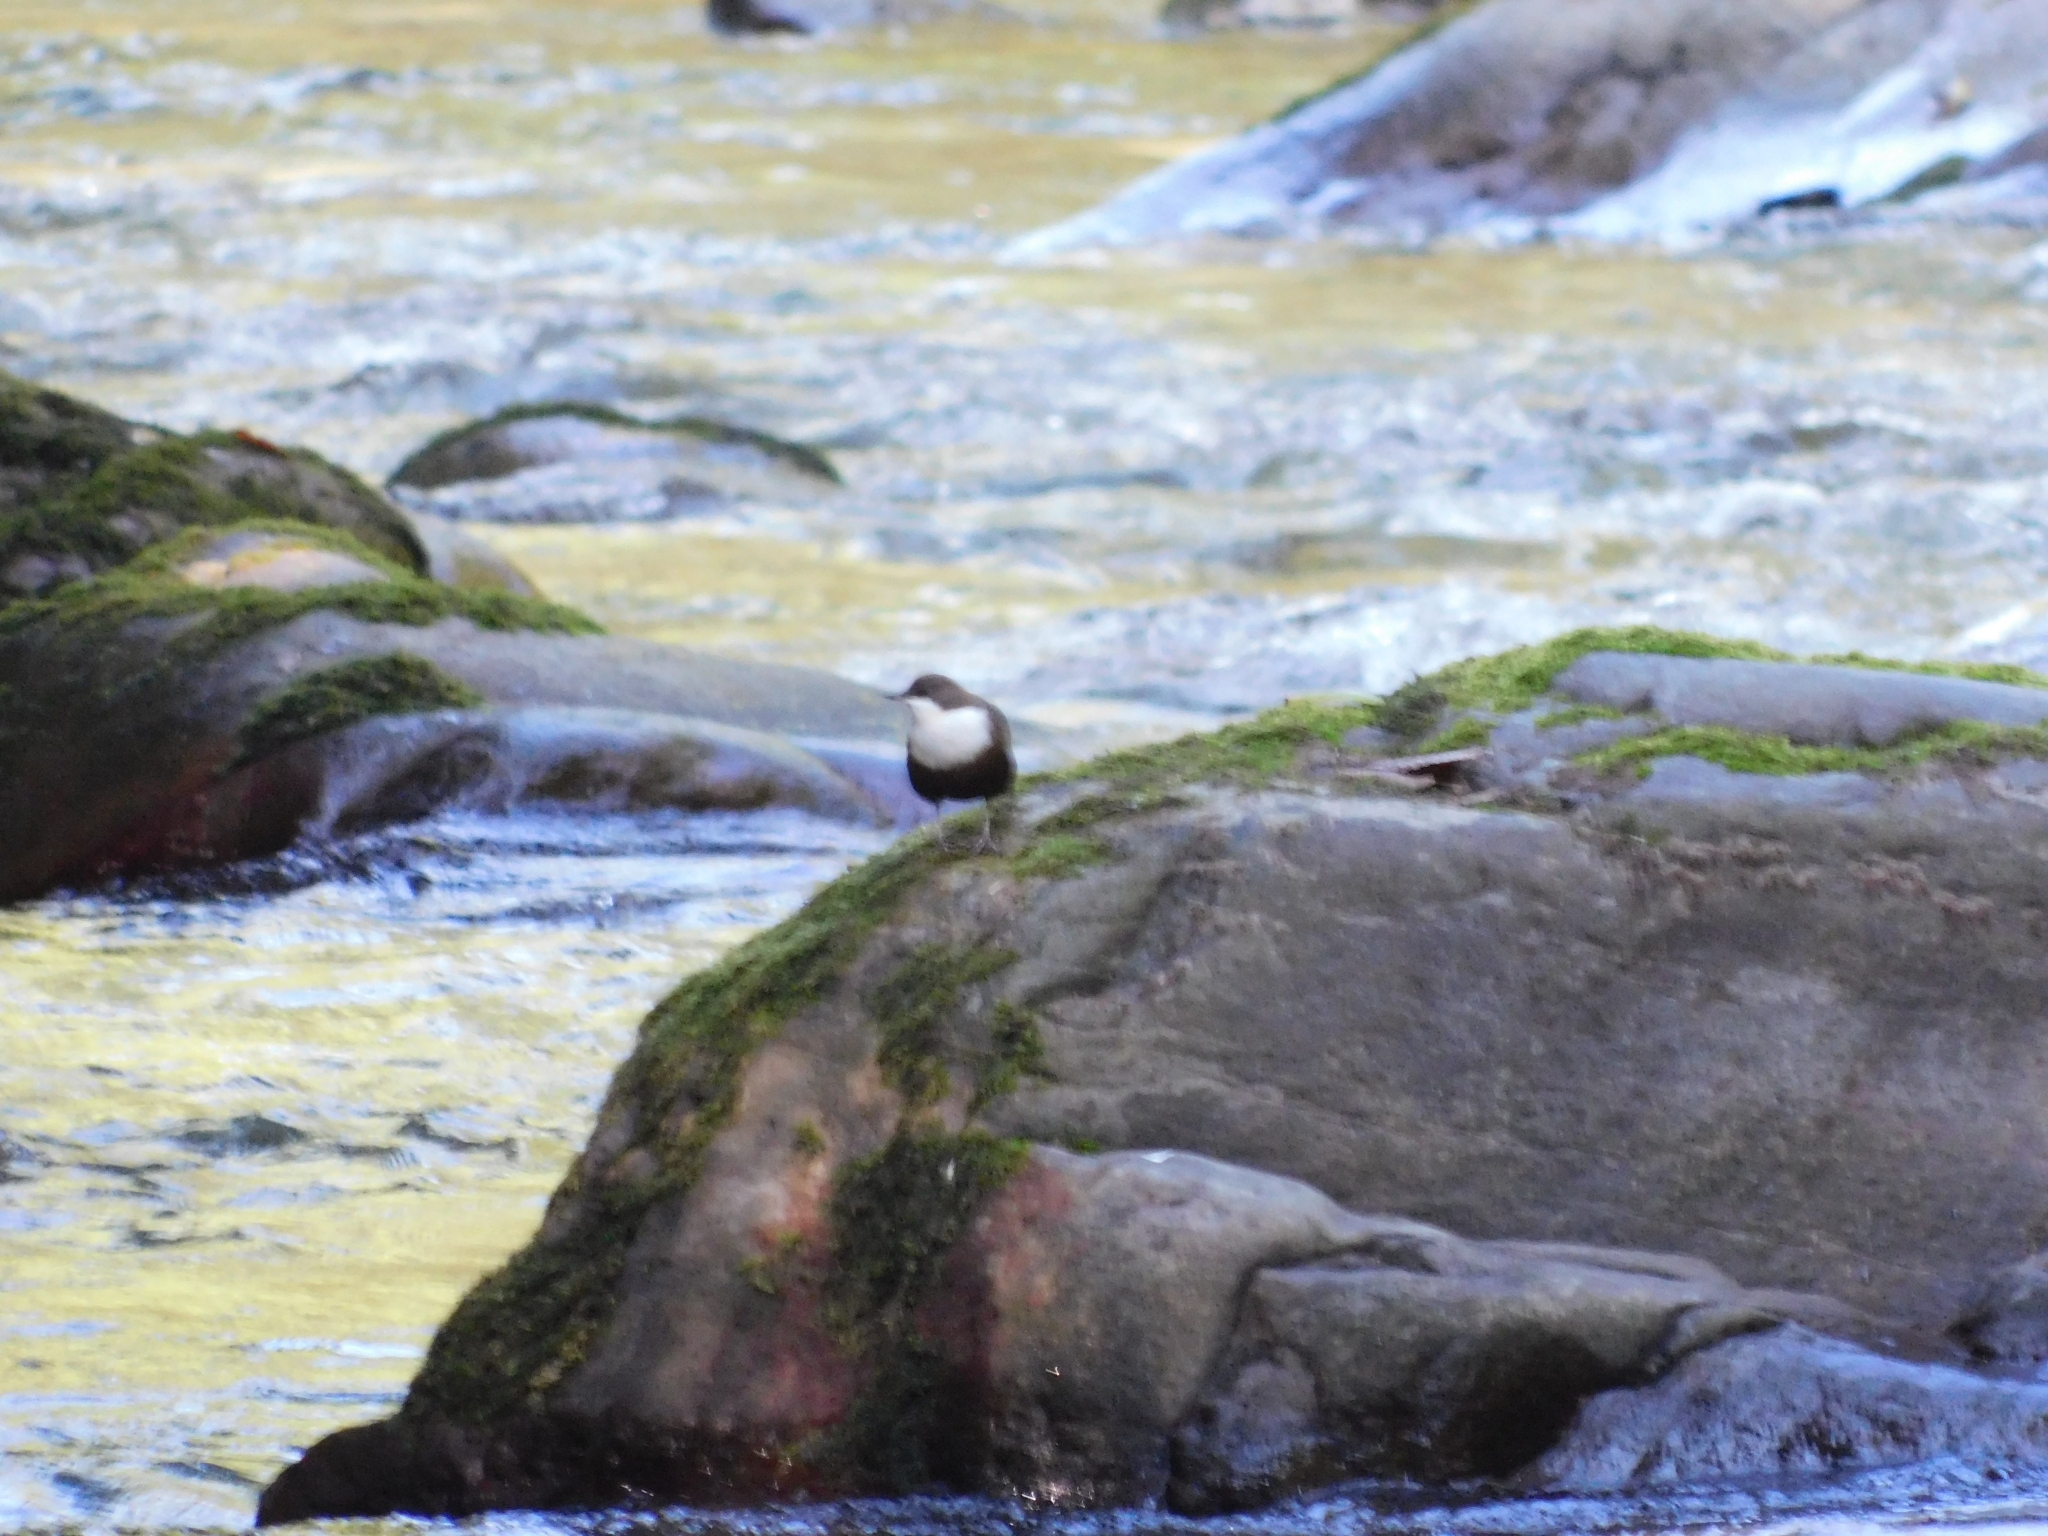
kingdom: Animalia
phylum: Chordata
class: Aves
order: Passeriformes
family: Cinclidae
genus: Cinclus
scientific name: Cinclus cinclus
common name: White-throated dipper
